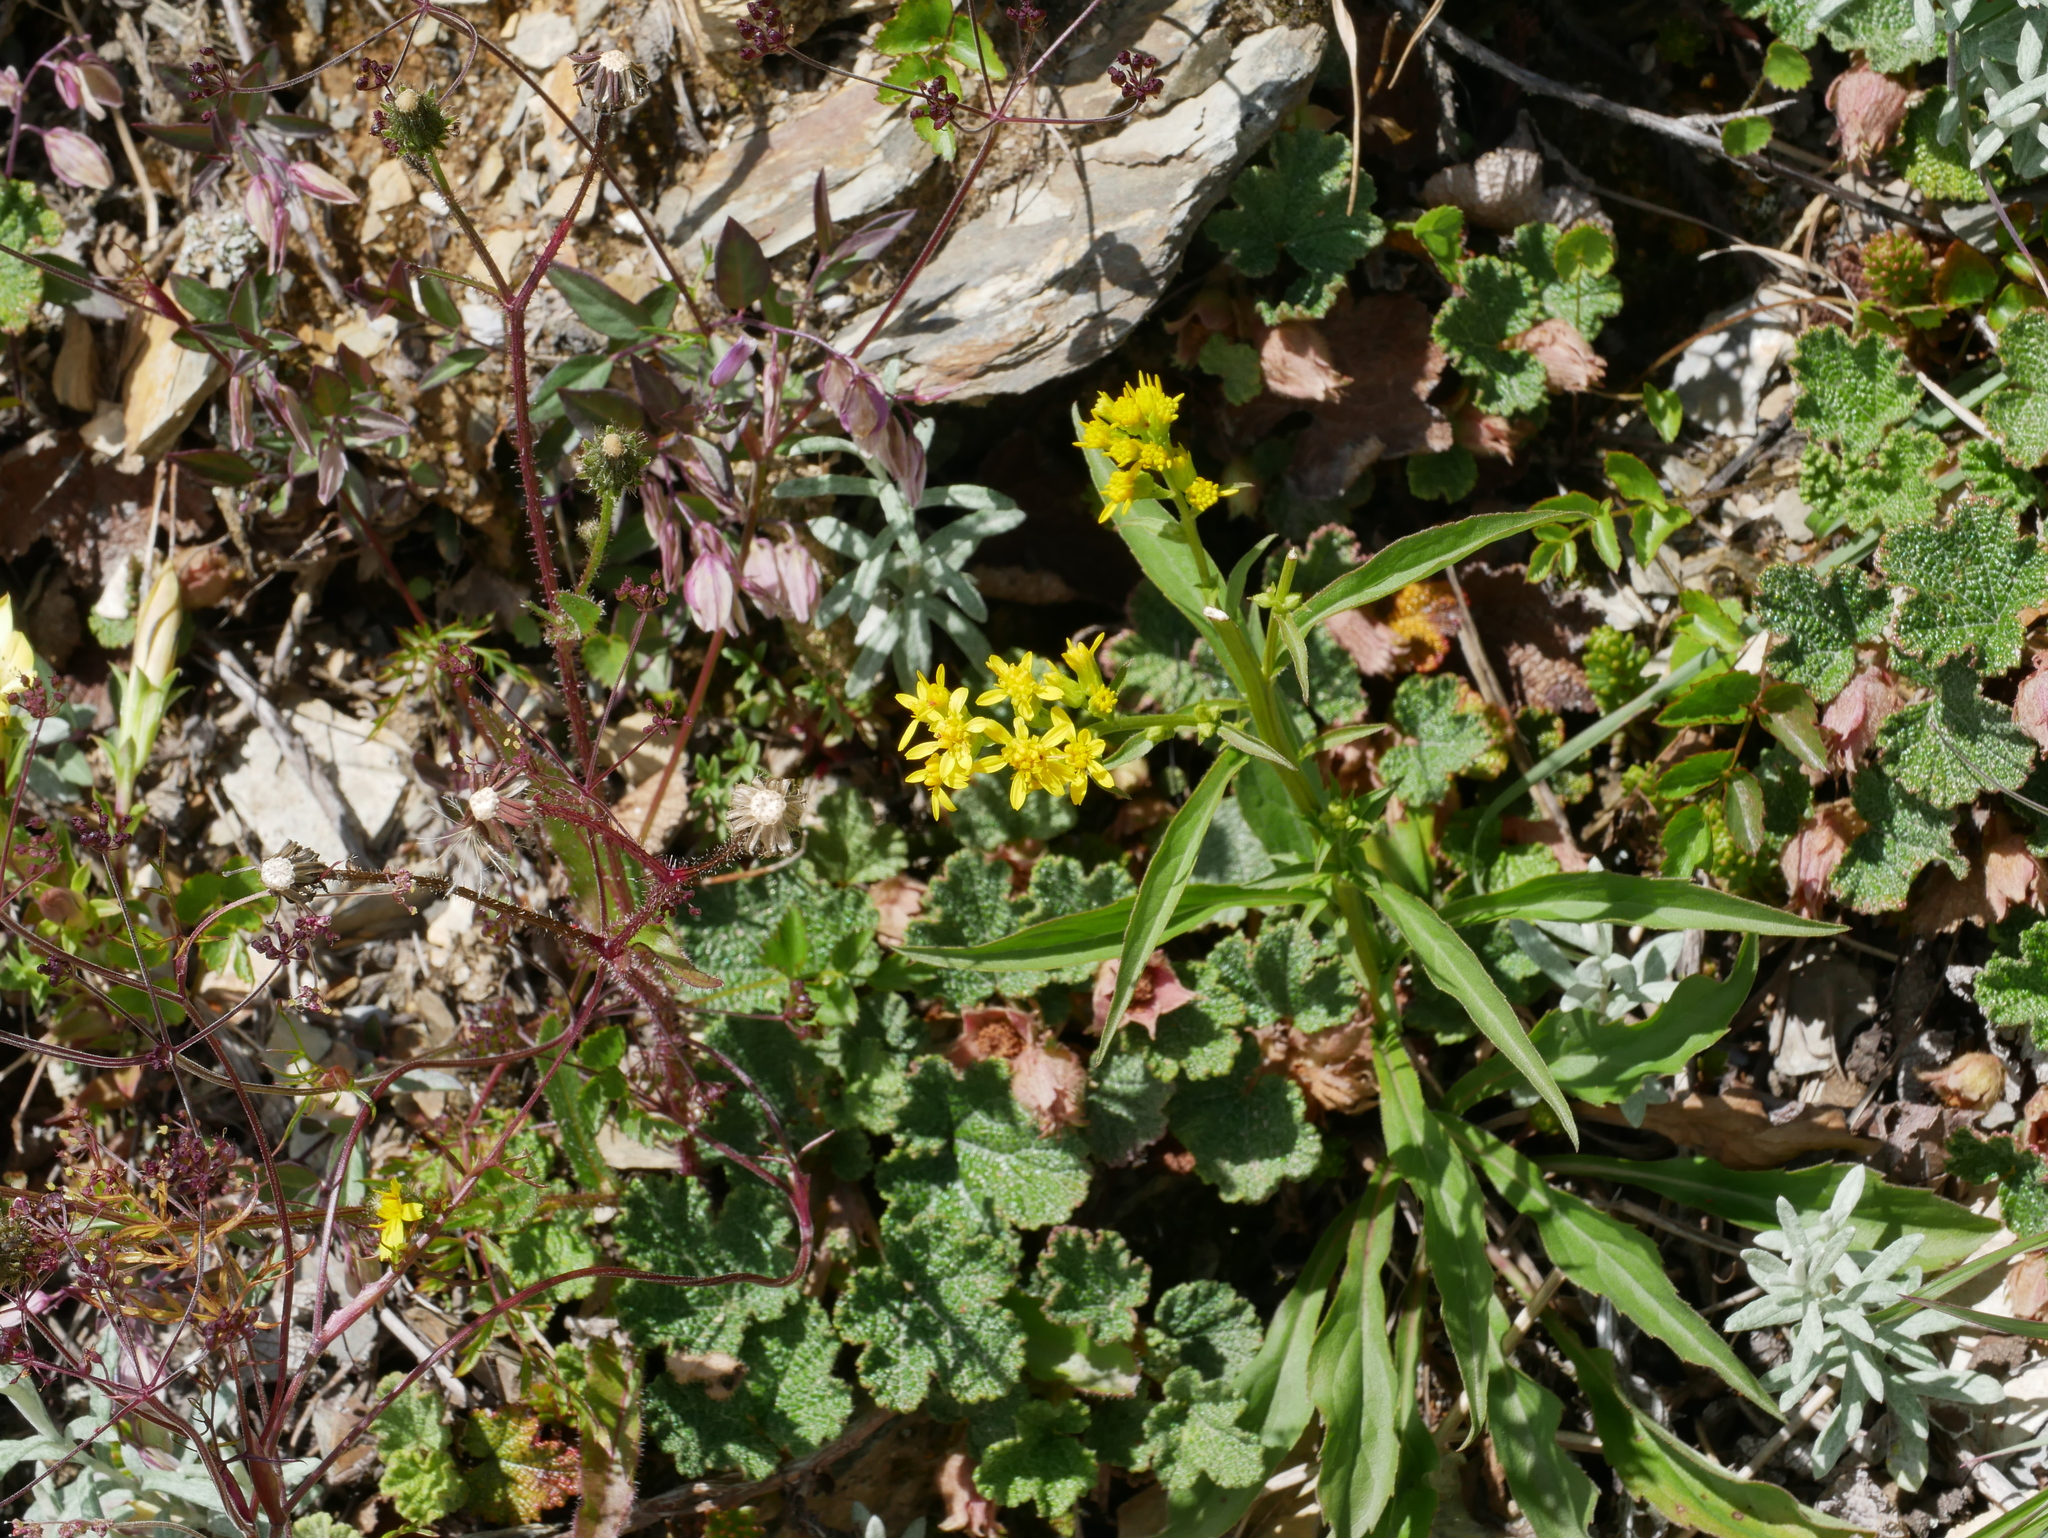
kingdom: Plantae
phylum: Tracheophyta
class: Magnoliopsida
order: Asterales
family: Asteraceae
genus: Solidago
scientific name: Solidago decurrens
